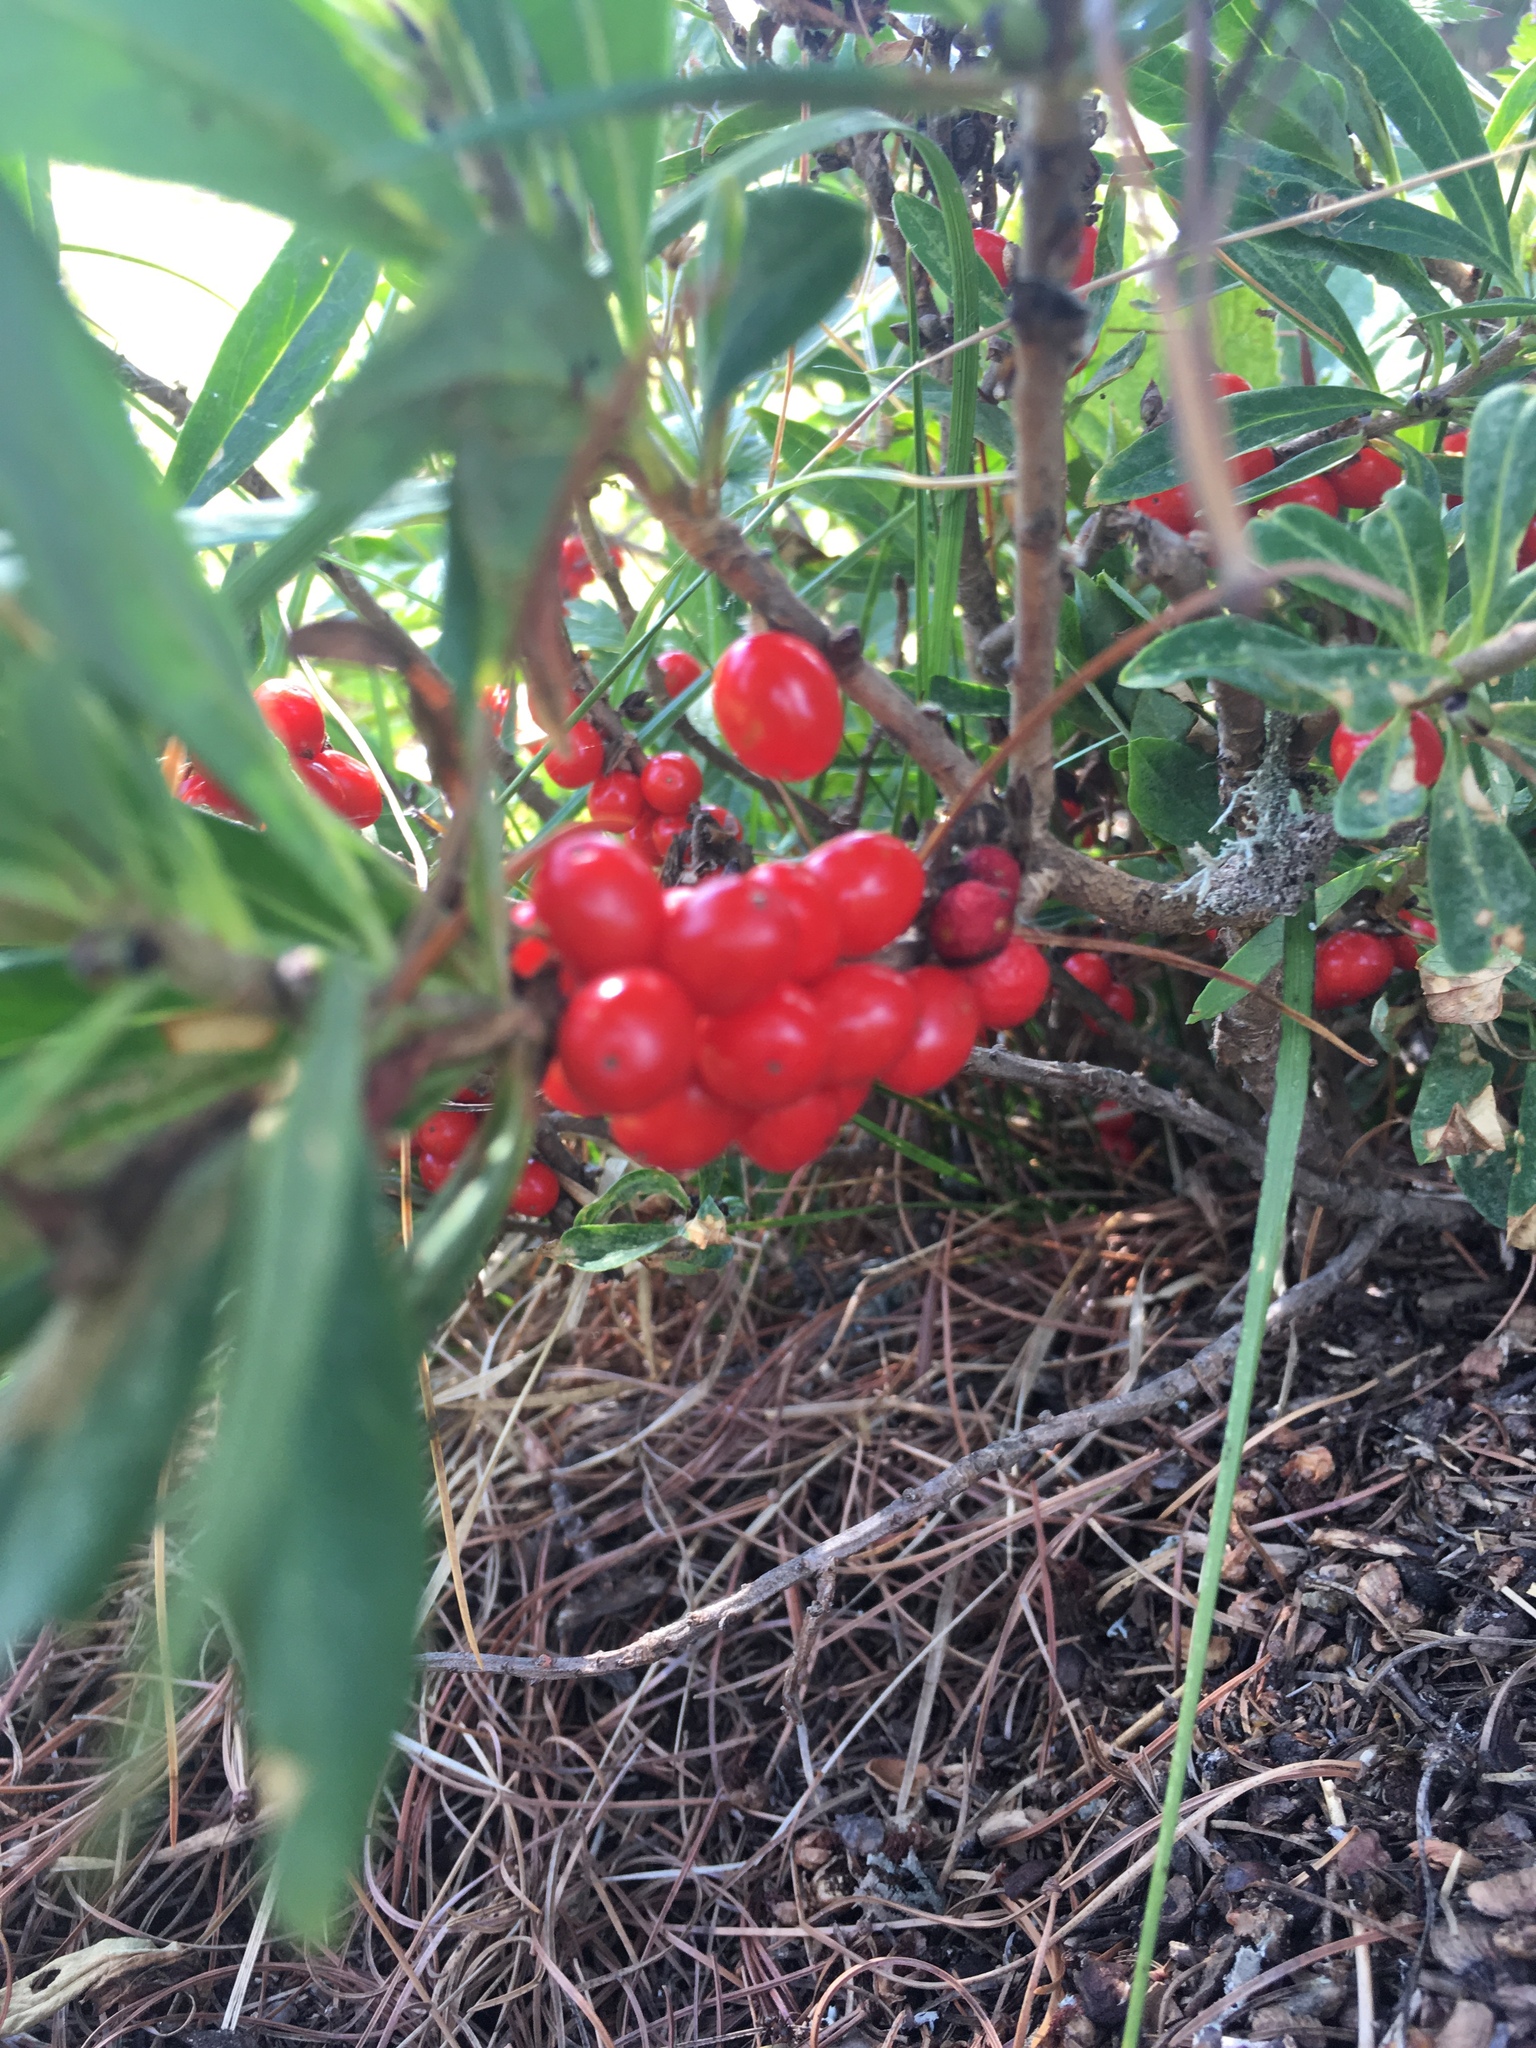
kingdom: Plantae
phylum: Tracheophyta
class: Magnoliopsida
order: Malvales
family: Thymelaeaceae
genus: Daphne
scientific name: Daphne mezereum
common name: Mezereon
